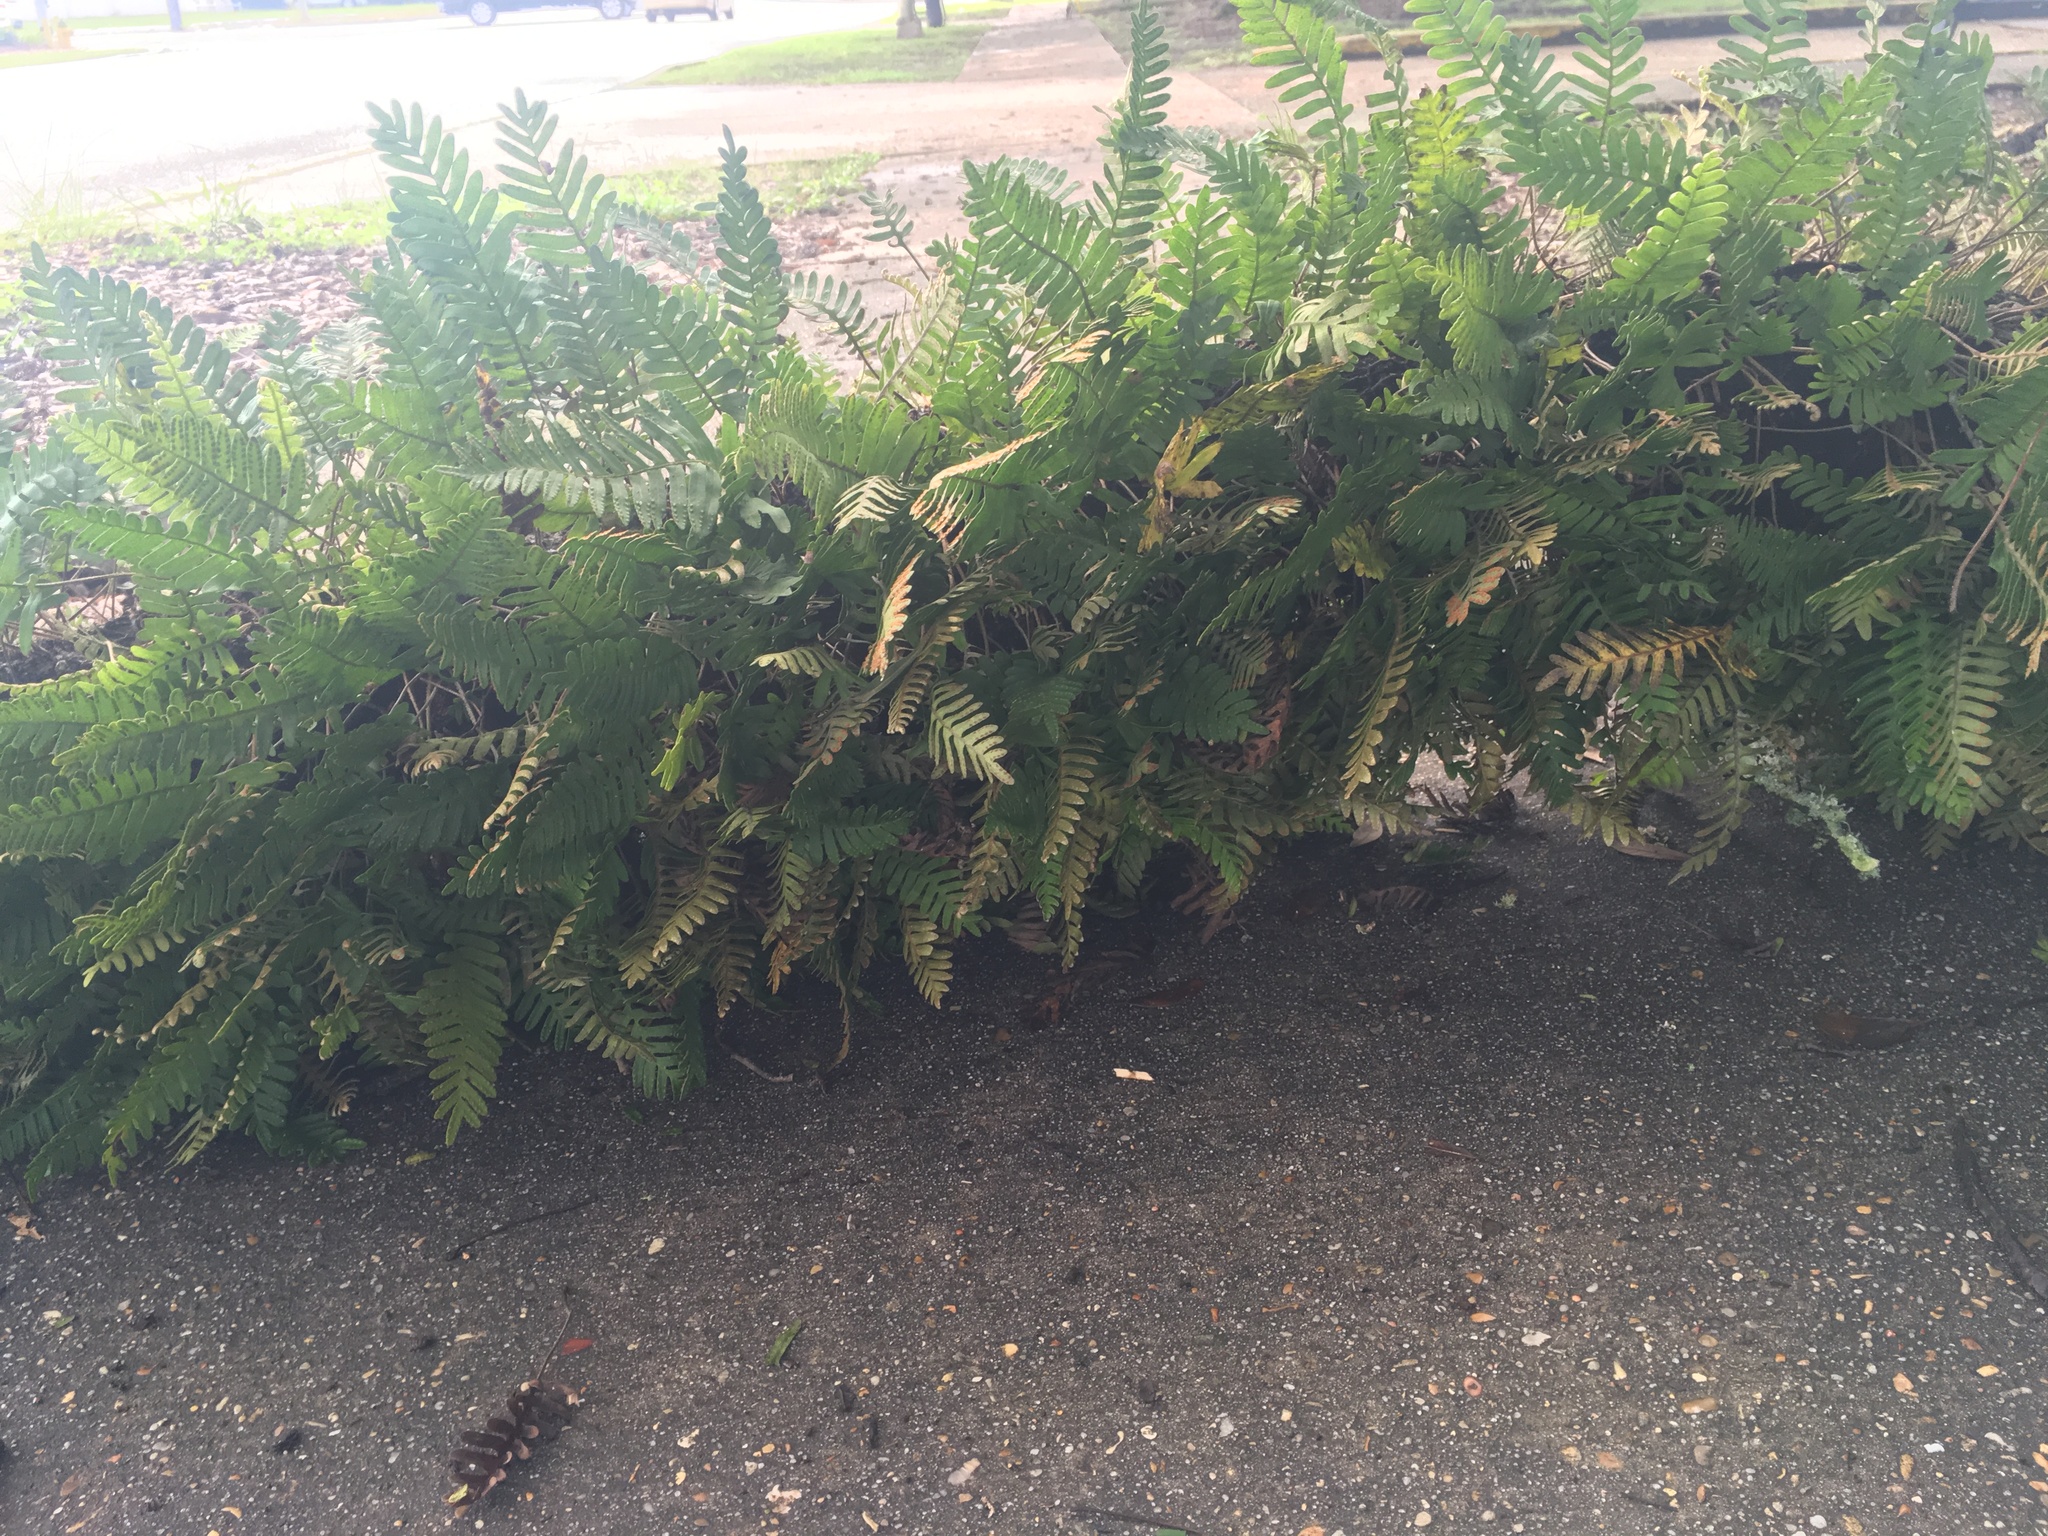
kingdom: Plantae
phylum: Tracheophyta
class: Polypodiopsida
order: Polypodiales
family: Polypodiaceae
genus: Pleopeltis
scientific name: Pleopeltis michauxiana
